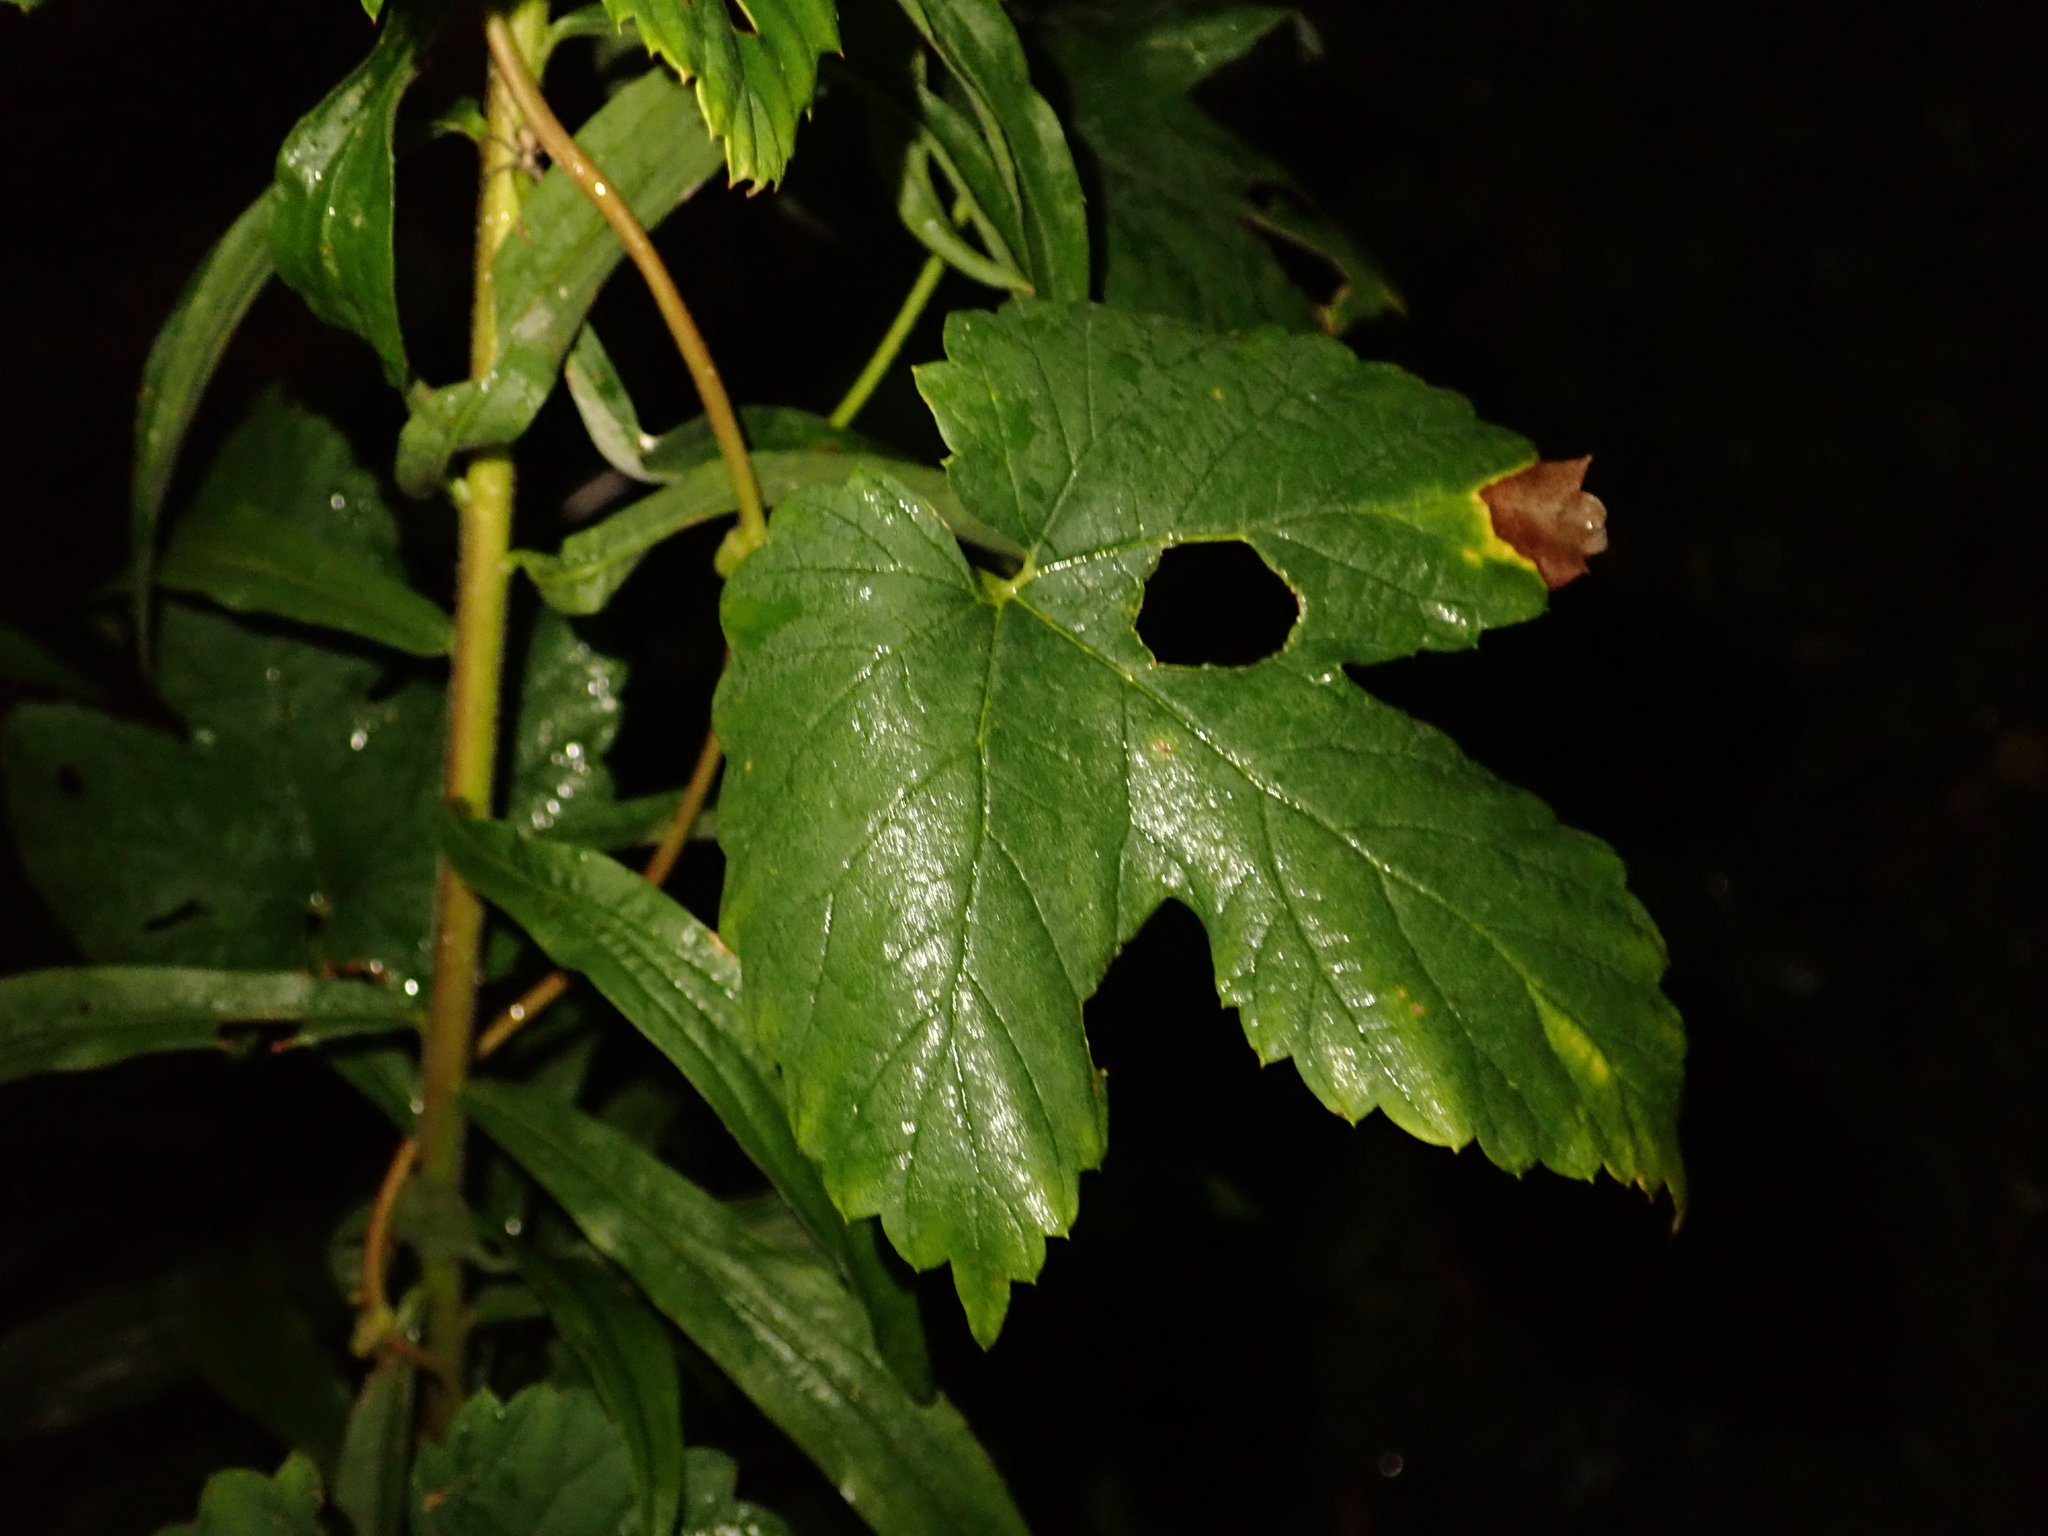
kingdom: Plantae
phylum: Tracheophyta
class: Magnoliopsida
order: Rosales
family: Cannabaceae
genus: Humulus
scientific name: Humulus lupulus
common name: Hop
